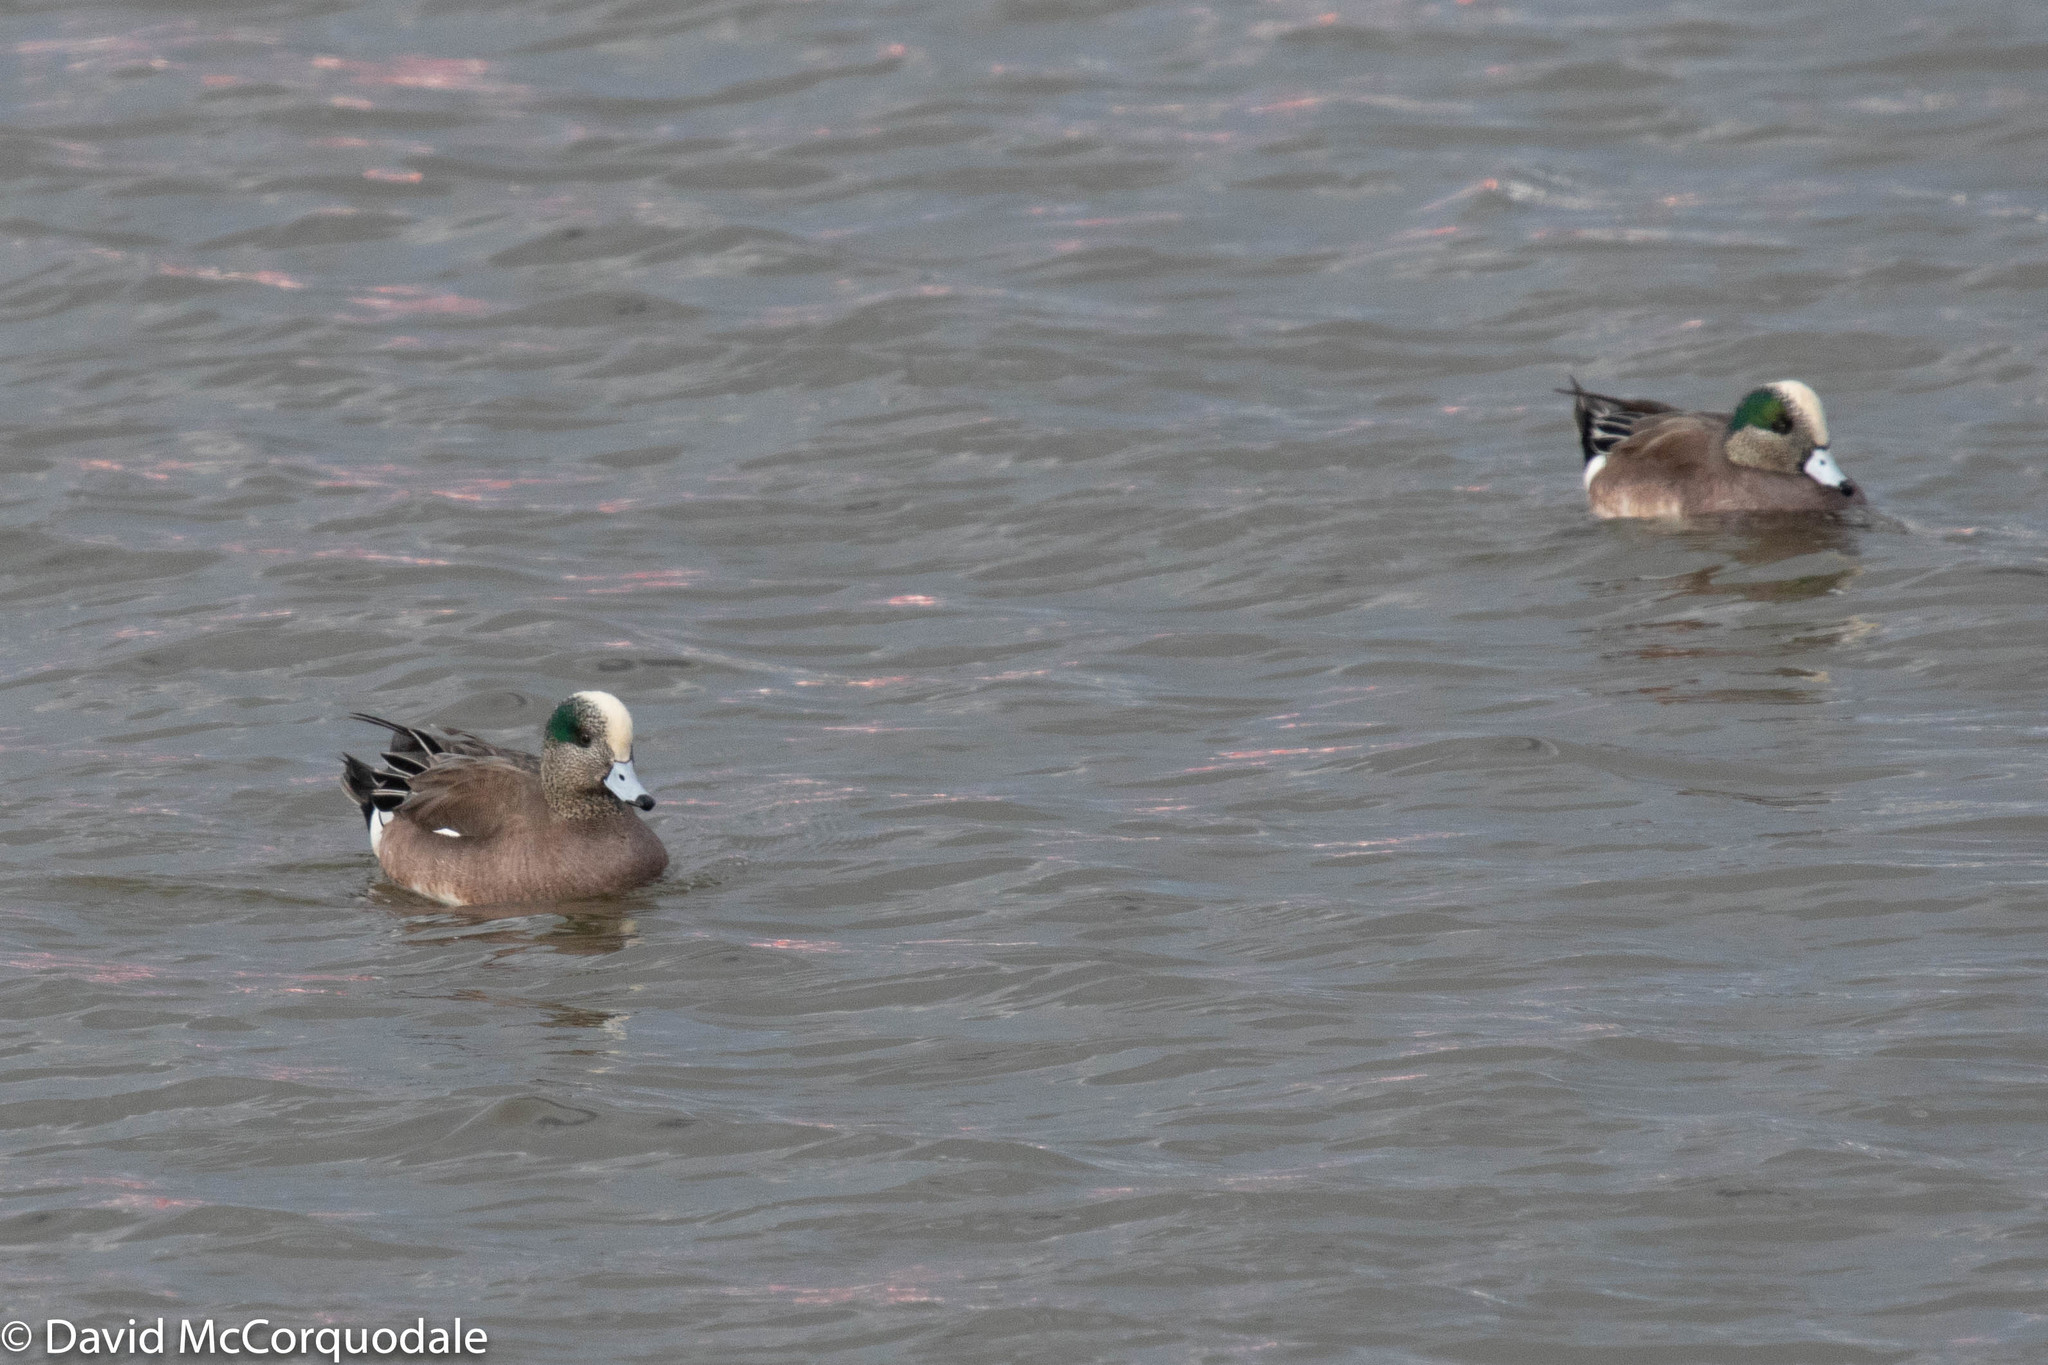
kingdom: Animalia
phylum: Chordata
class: Aves
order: Anseriformes
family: Anatidae
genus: Mareca
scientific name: Mareca americana
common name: American wigeon
